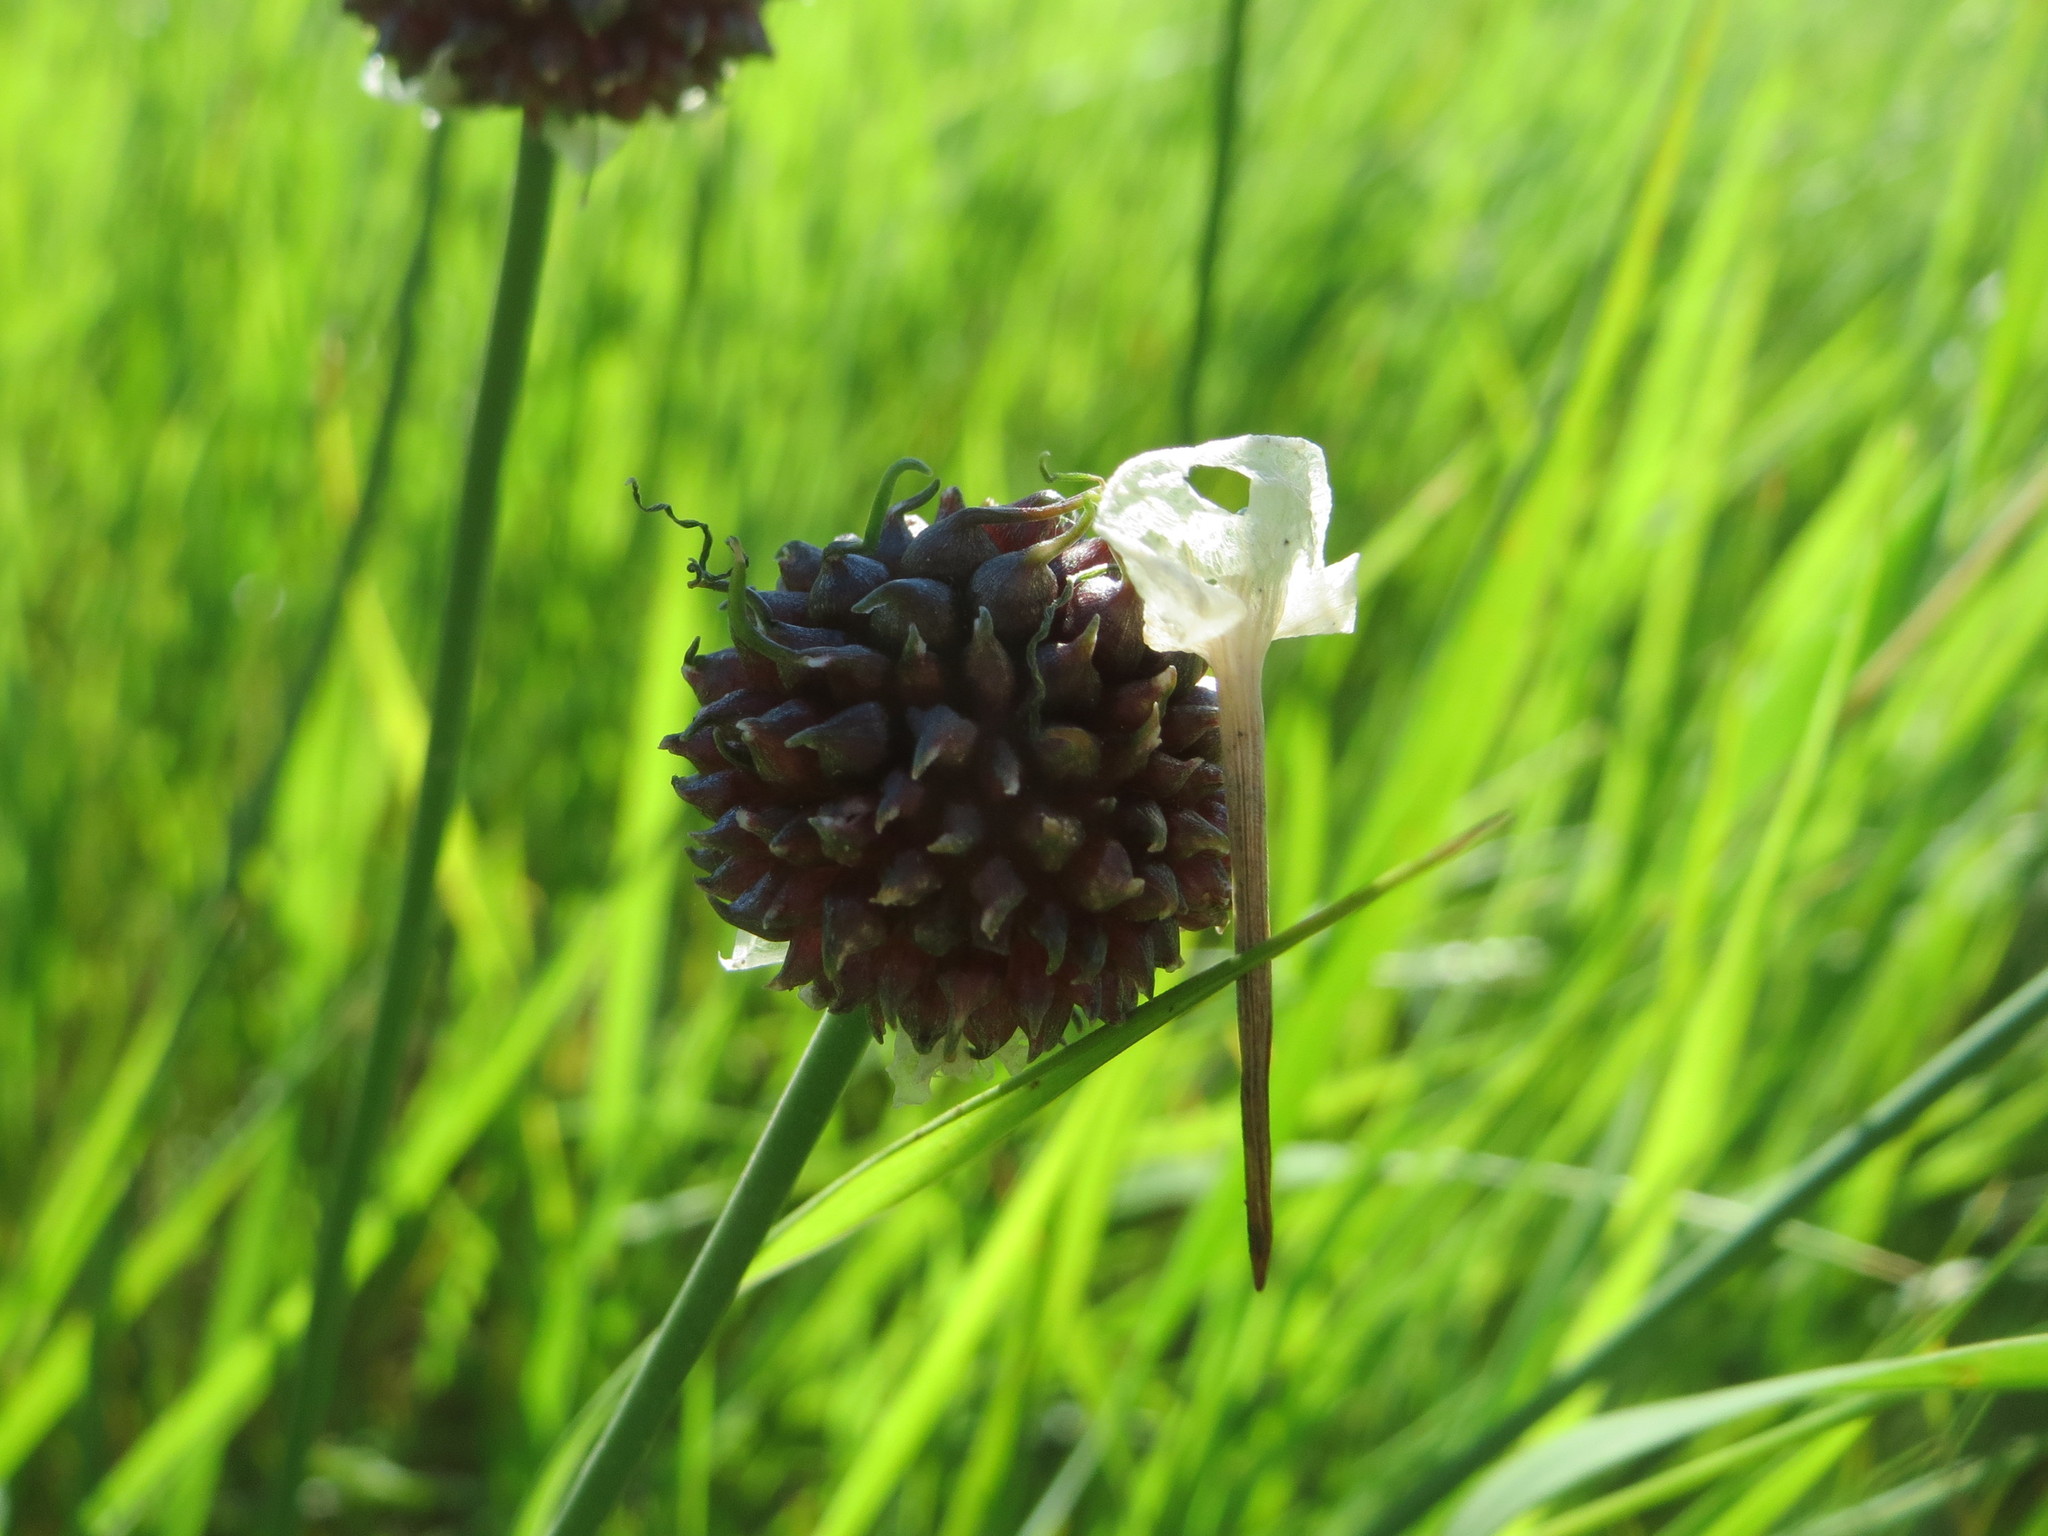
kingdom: Plantae
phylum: Tracheophyta
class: Liliopsida
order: Asparagales
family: Amaryllidaceae
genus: Allium
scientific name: Allium vineale
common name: Crow garlic
